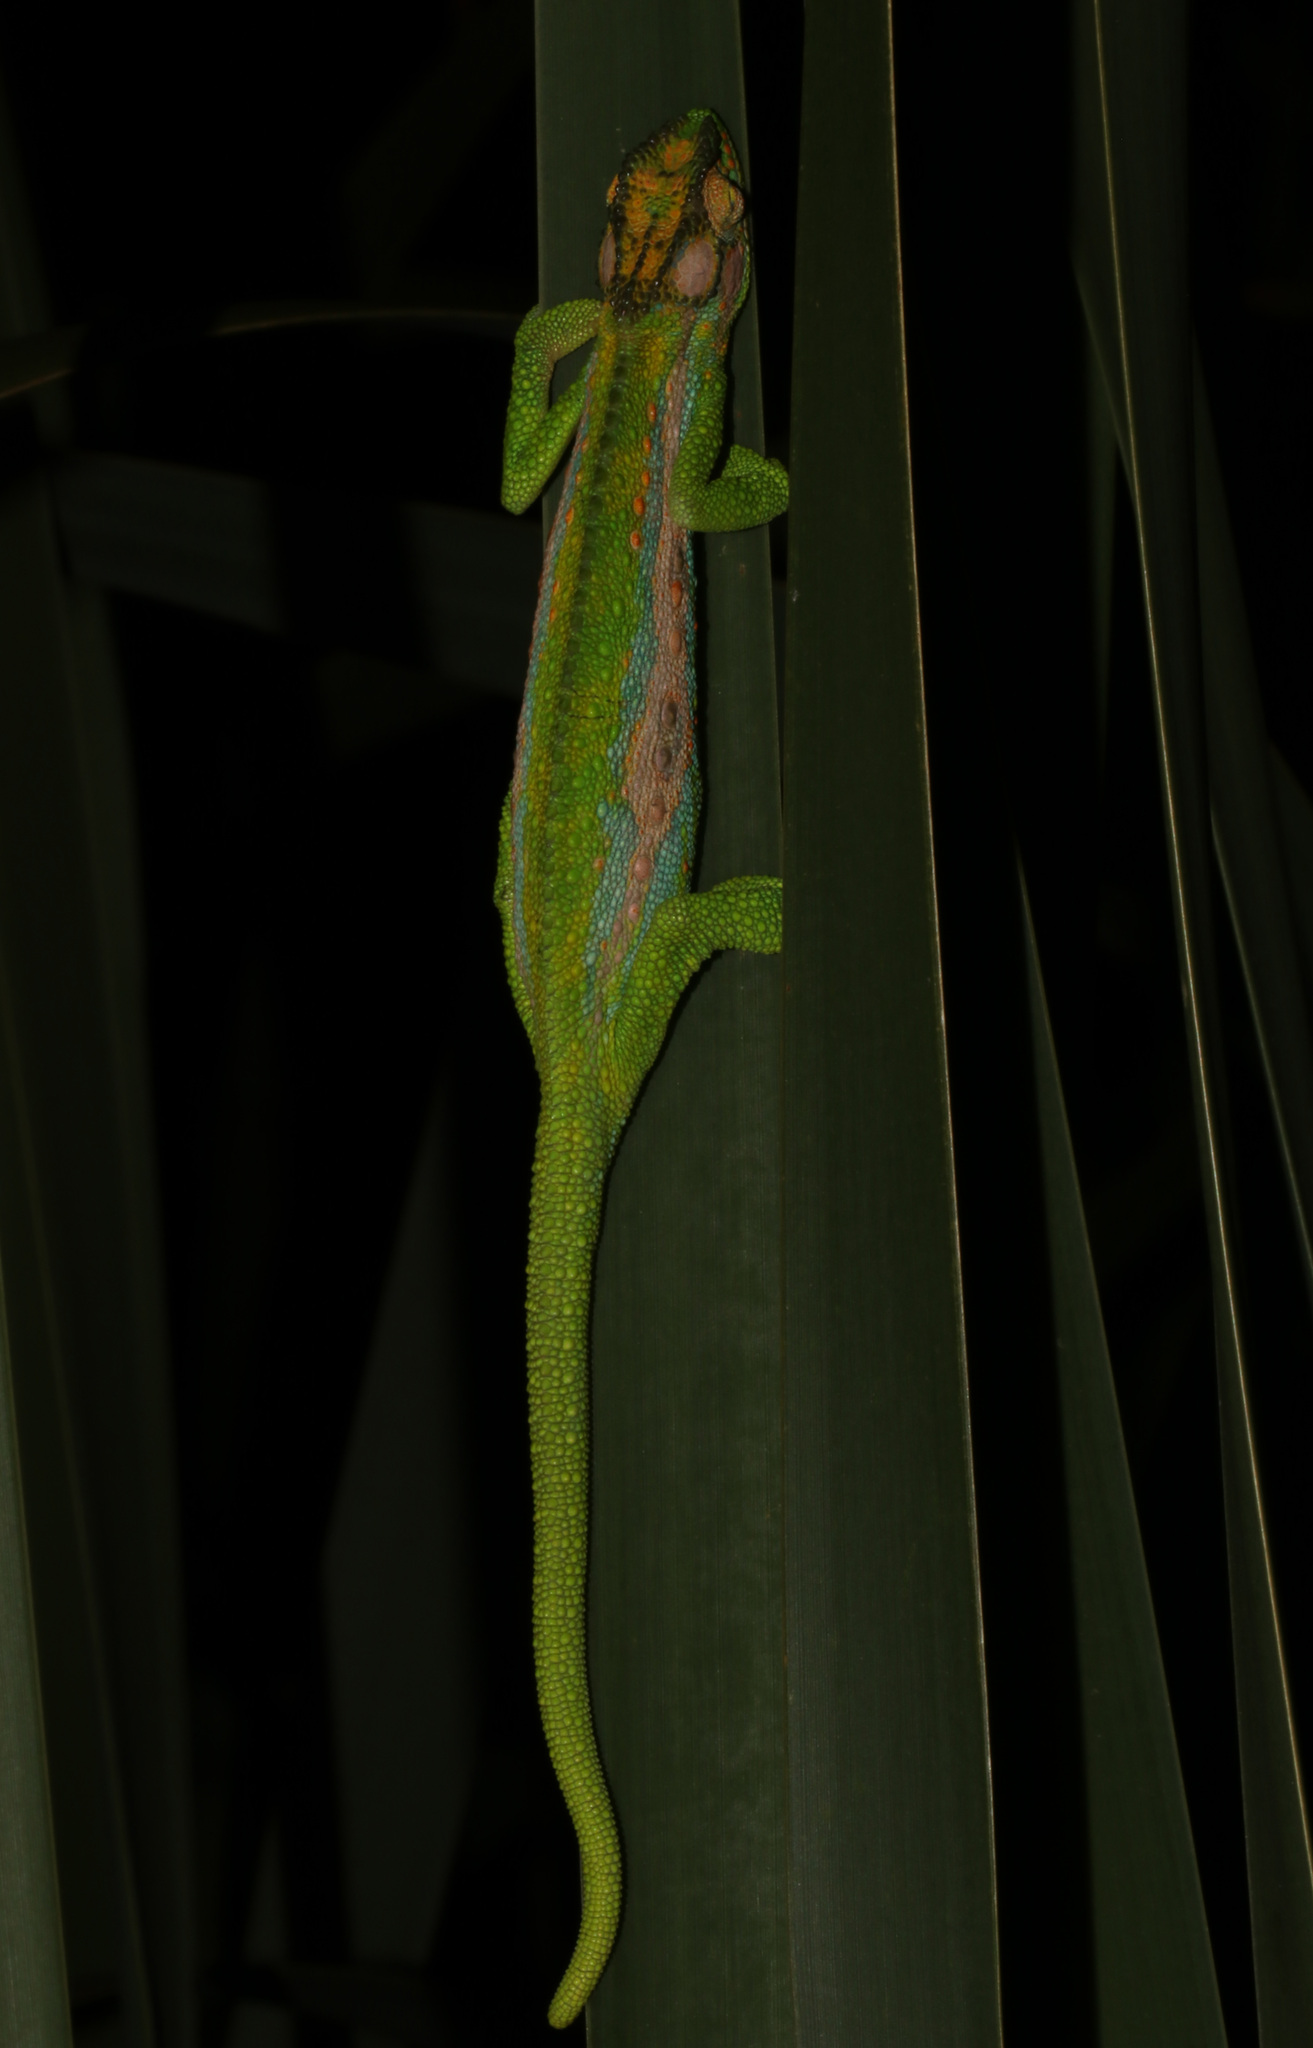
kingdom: Animalia
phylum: Chordata
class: Squamata
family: Chamaeleonidae
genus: Bradypodion
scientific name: Bradypodion pumilum
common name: Cape dwarf chameleon
